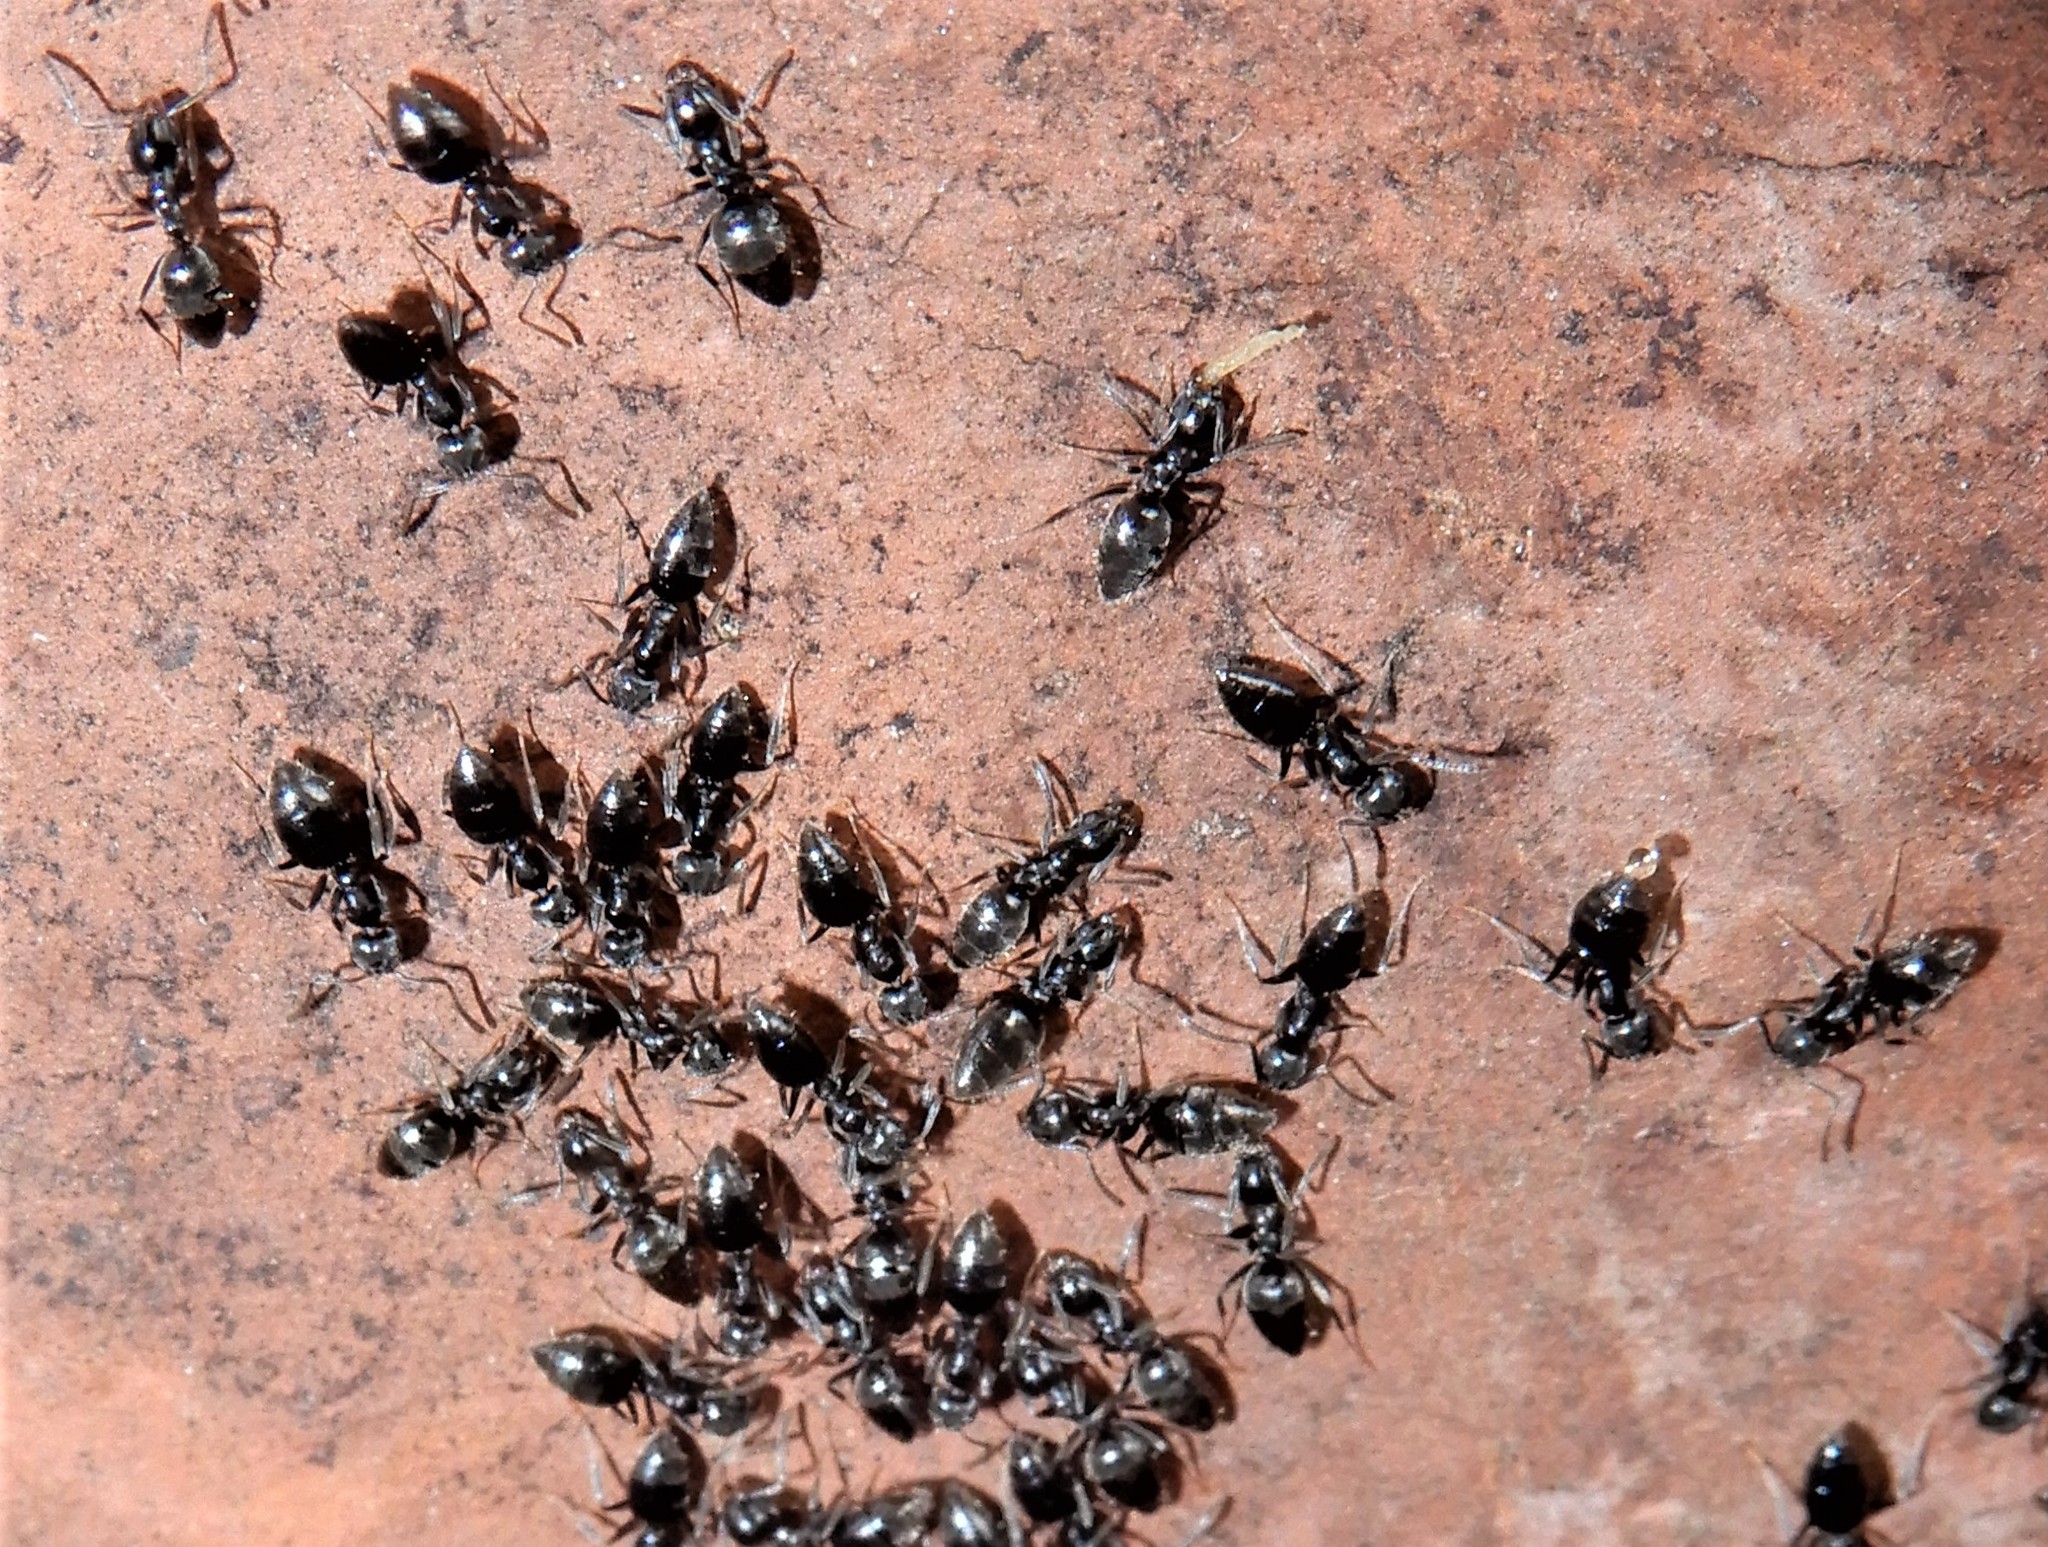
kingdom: Animalia
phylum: Arthropoda
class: Insecta
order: Hymenoptera
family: Formicidae
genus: Technomyrmex
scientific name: Technomyrmex jocosus
